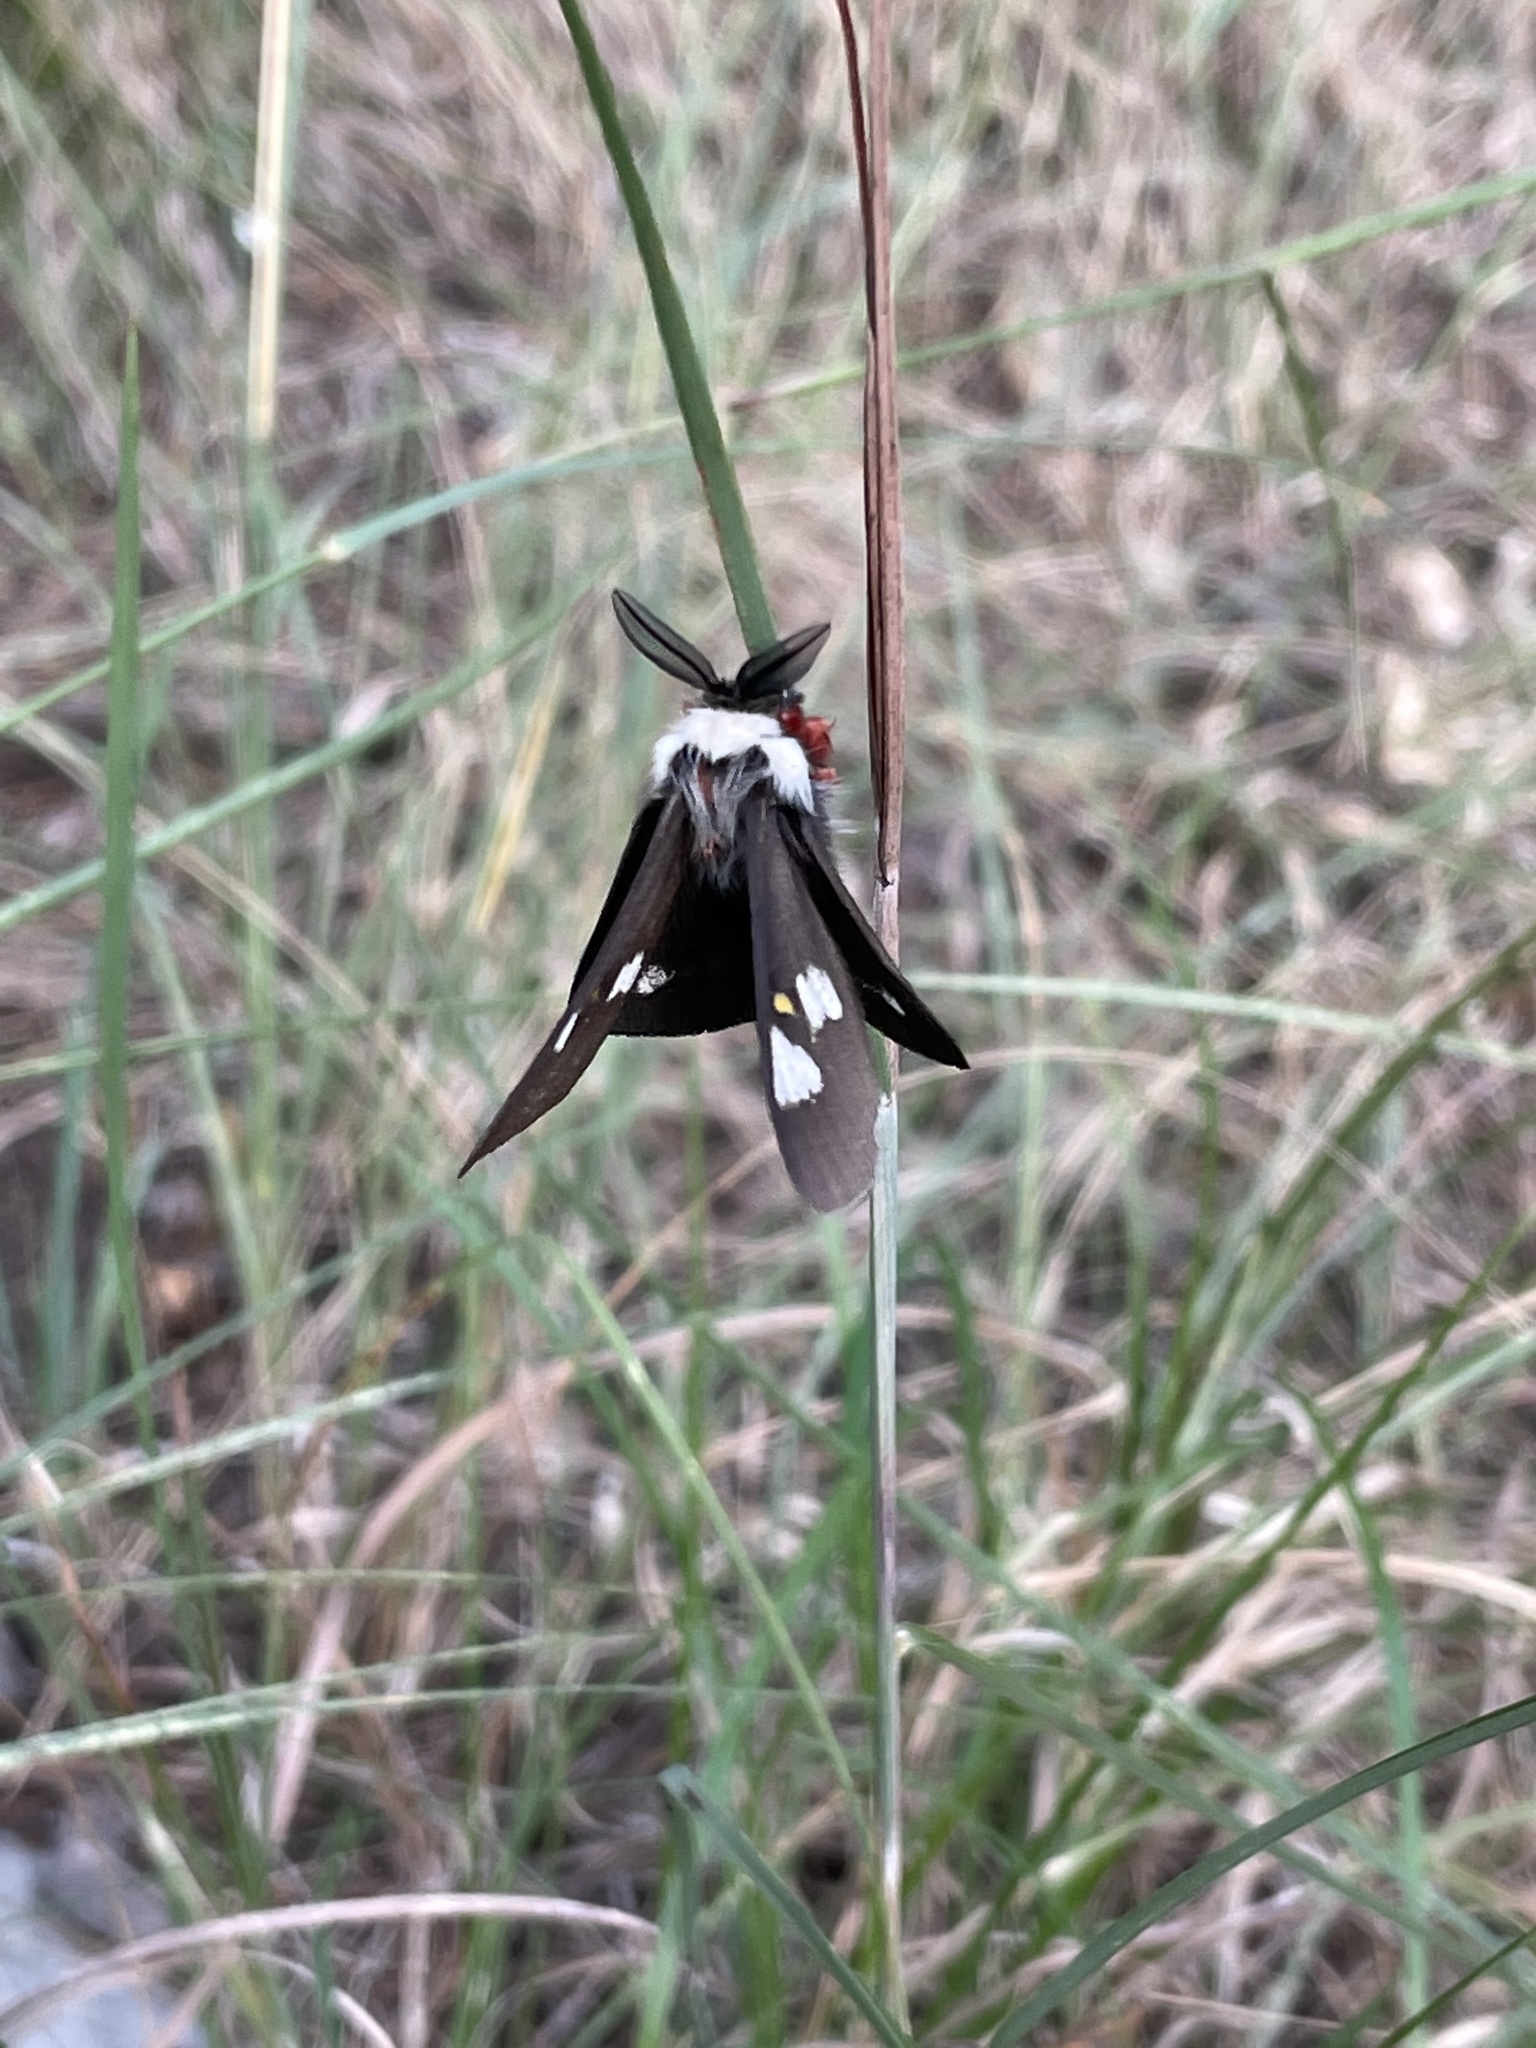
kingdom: Animalia
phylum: Arthropoda
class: Insecta
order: Lepidoptera
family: Saturniidae
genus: Hemileuca
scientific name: Hemileuca grotei
